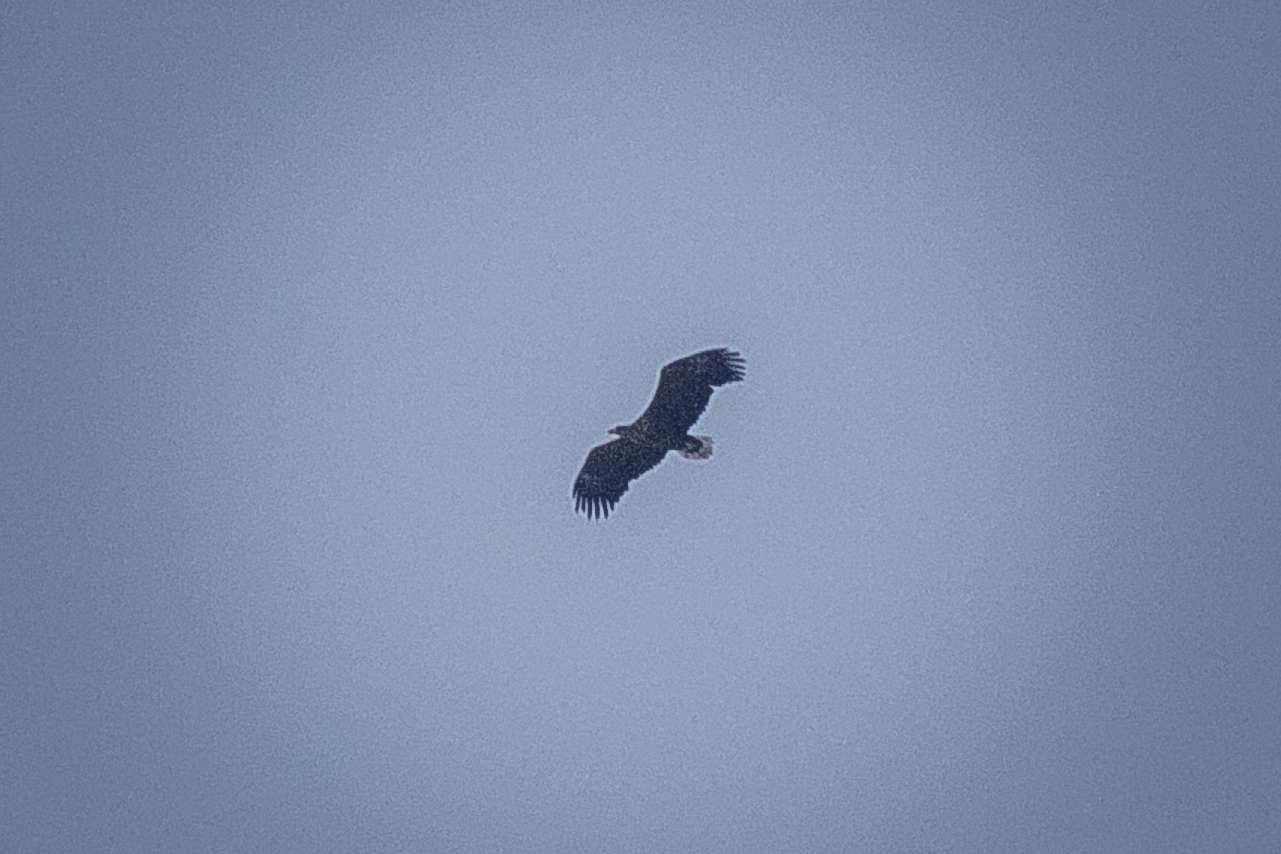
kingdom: Animalia
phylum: Chordata
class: Aves
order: Accipitriformes
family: Accipitridae
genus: Haliaeetus
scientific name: Haliaeetus albicilla
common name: White-tailed eagle
